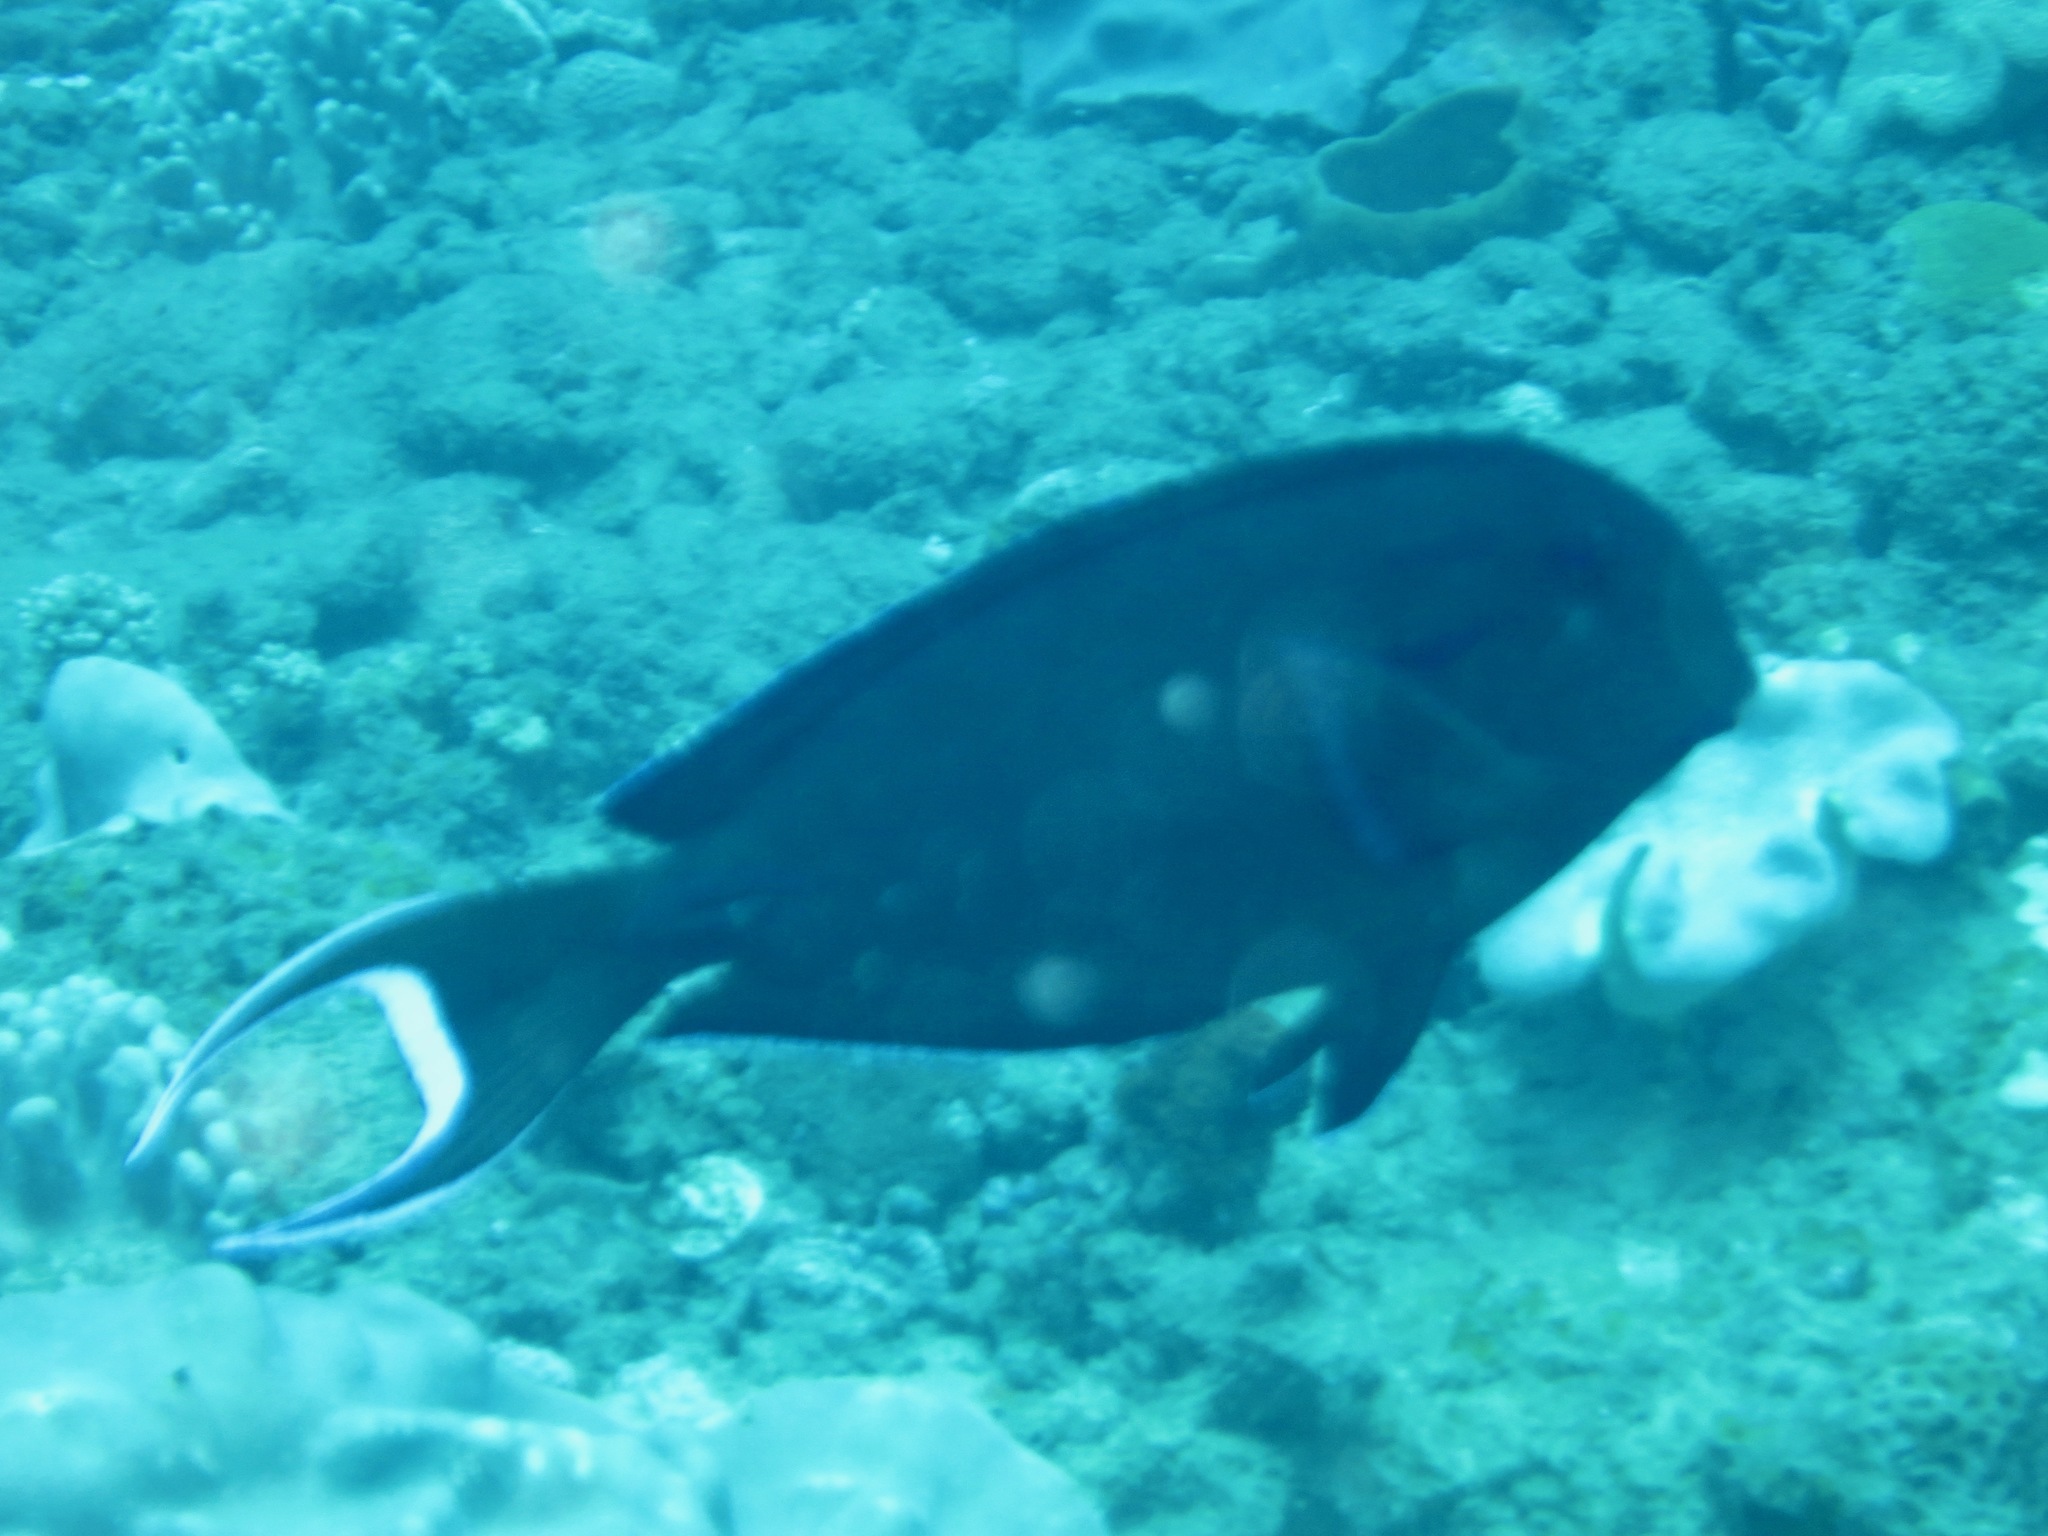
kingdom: Animalia
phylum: Chordata
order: Perciformes
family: Acanthuridae
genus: Acanthurus
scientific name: Acanthurus tennentii
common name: Doubleband surgeonfish
